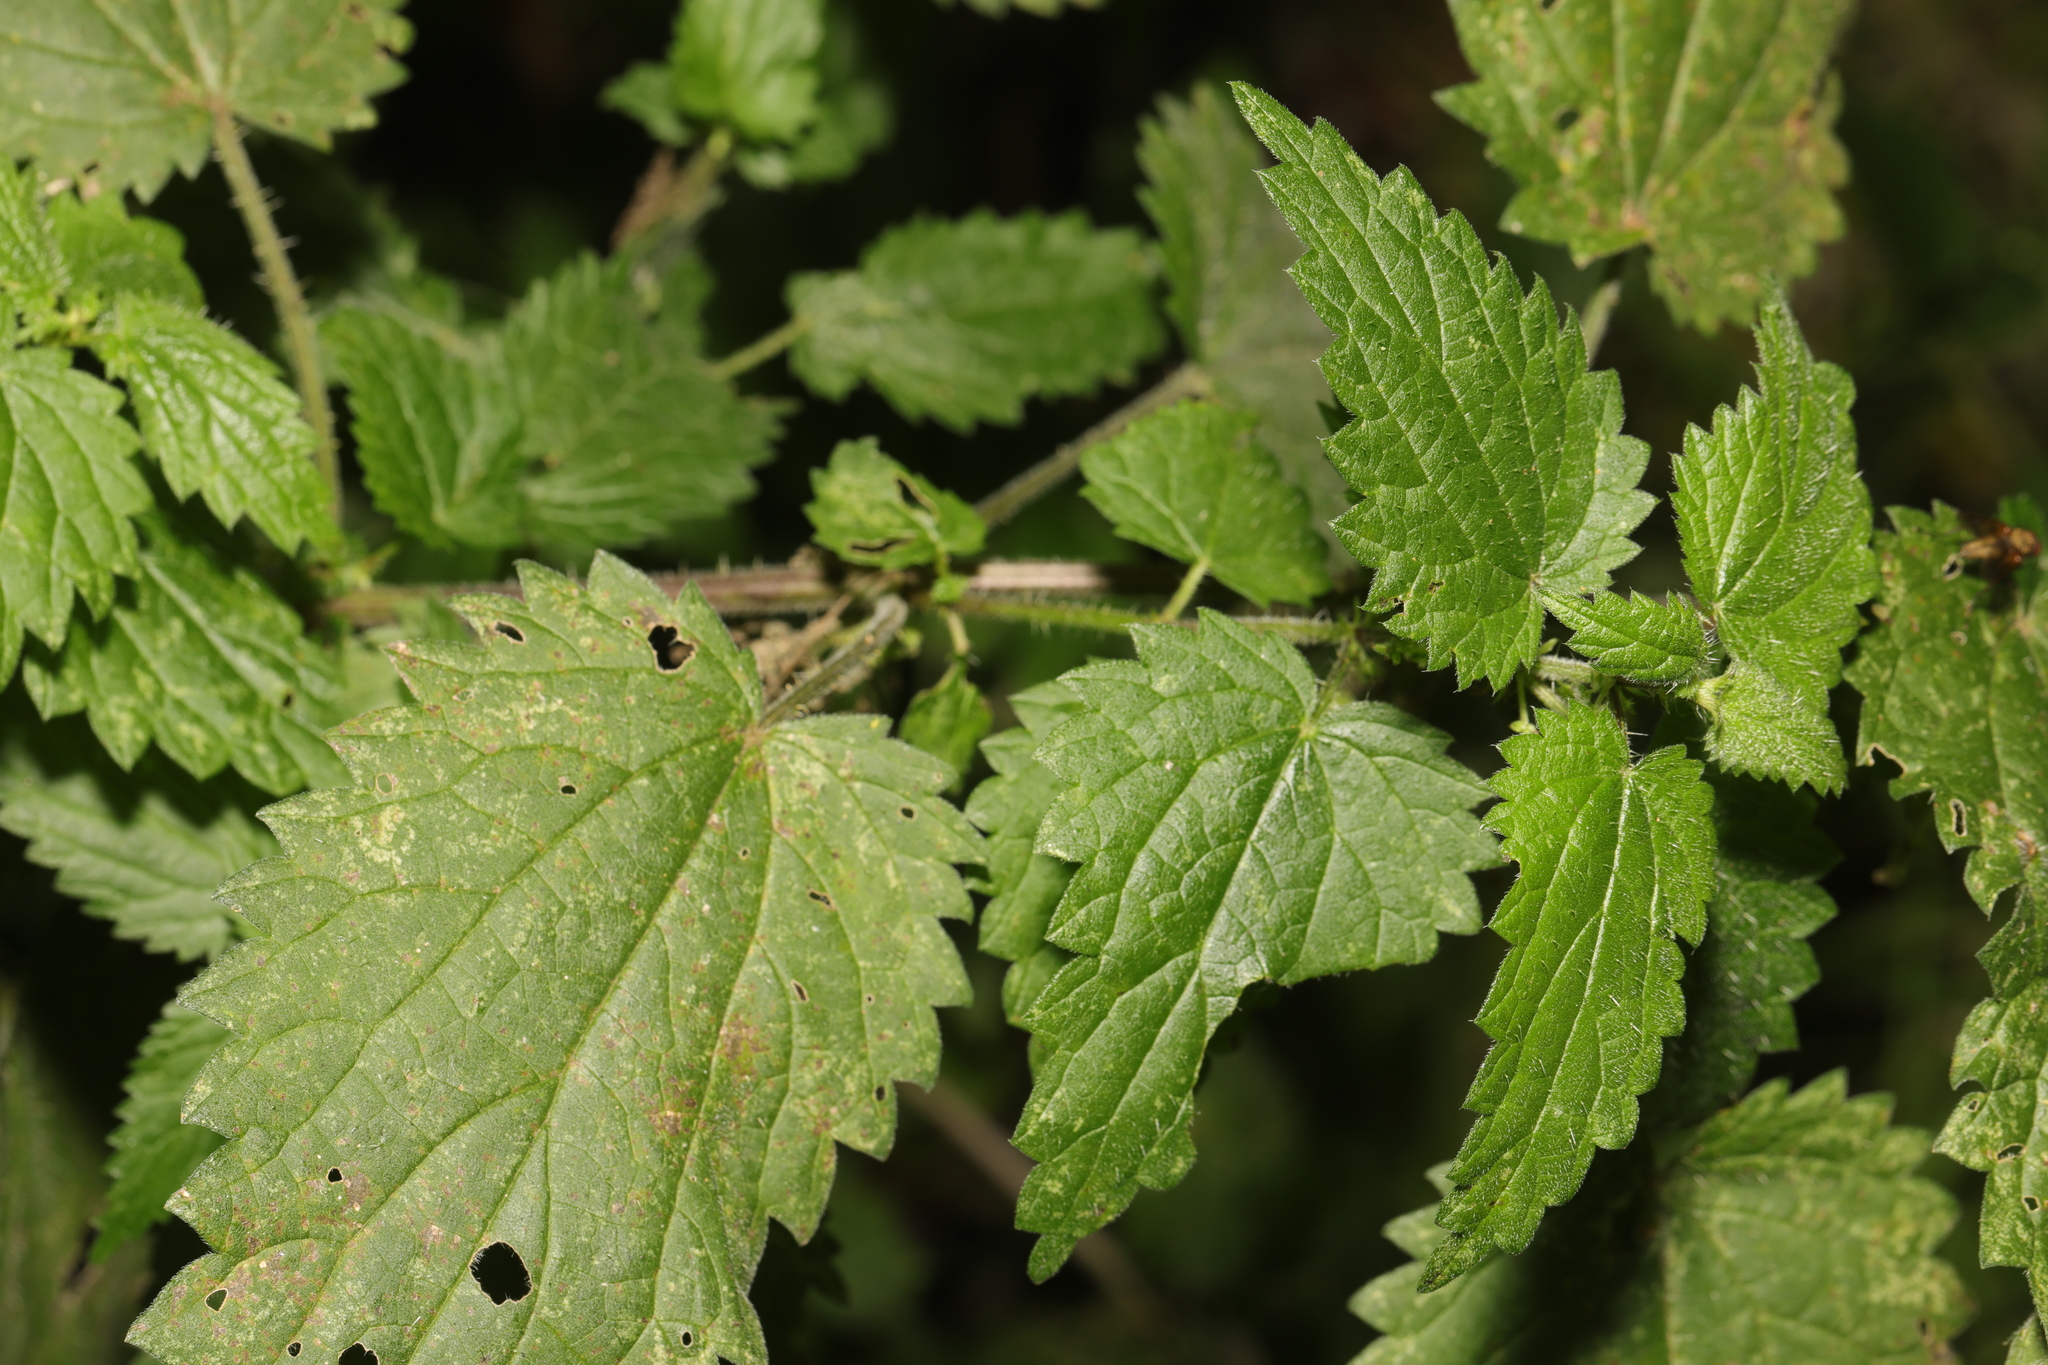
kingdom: Plantae
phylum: Tracheophyta
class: Magnoliopsida
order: Rosales
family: Urticaceae
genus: Urtica
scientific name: Urtica dioica
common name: Common nettle
